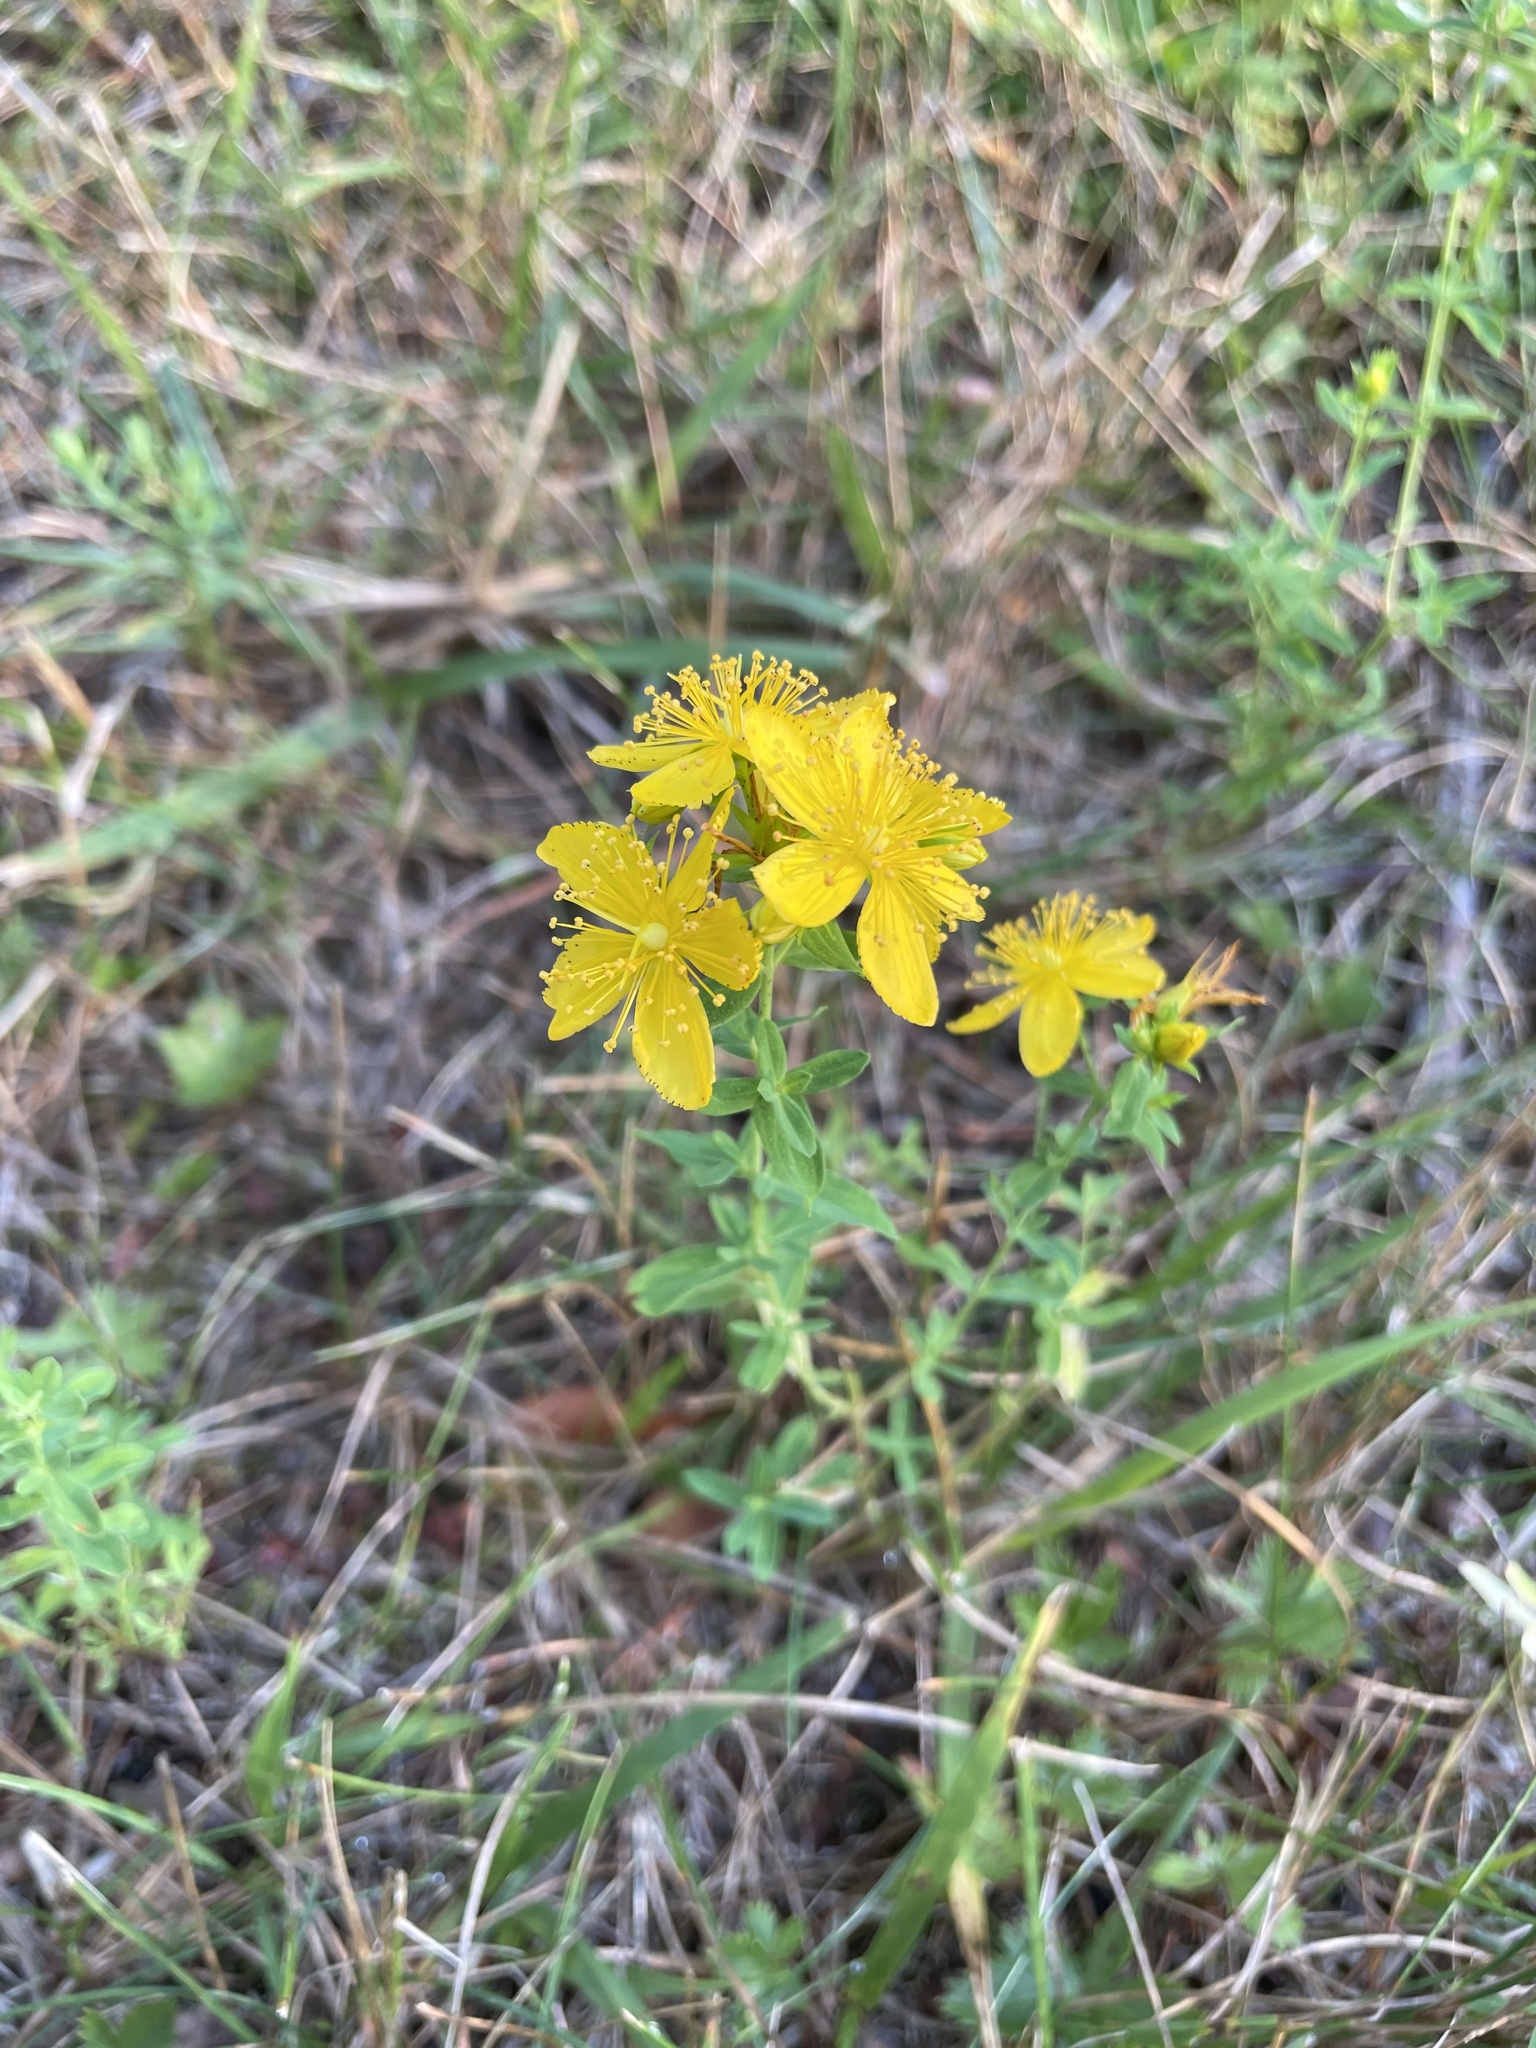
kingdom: Plantae
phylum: Tracheophyta
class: Magnoliopsida
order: Malpighiales
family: Hypericaceae
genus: Hypericum
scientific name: Hypericum perforatum
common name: Common st. johnswort
